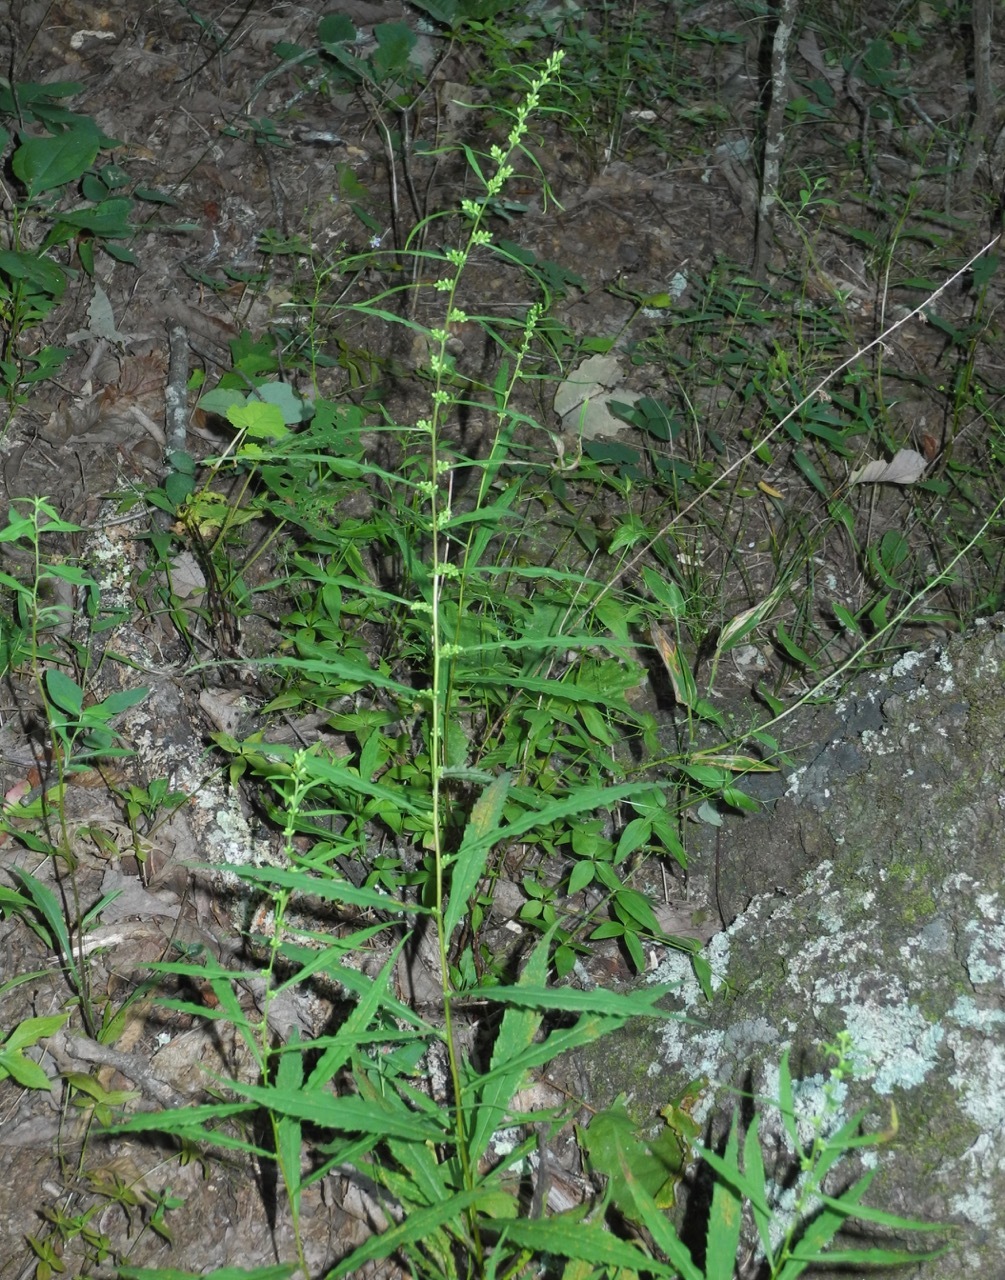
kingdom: Plantae
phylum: Tracheophyta
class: Magnoliopsida
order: Asterales
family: Asteraceae
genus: Solidago
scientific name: Solidago curtisii
